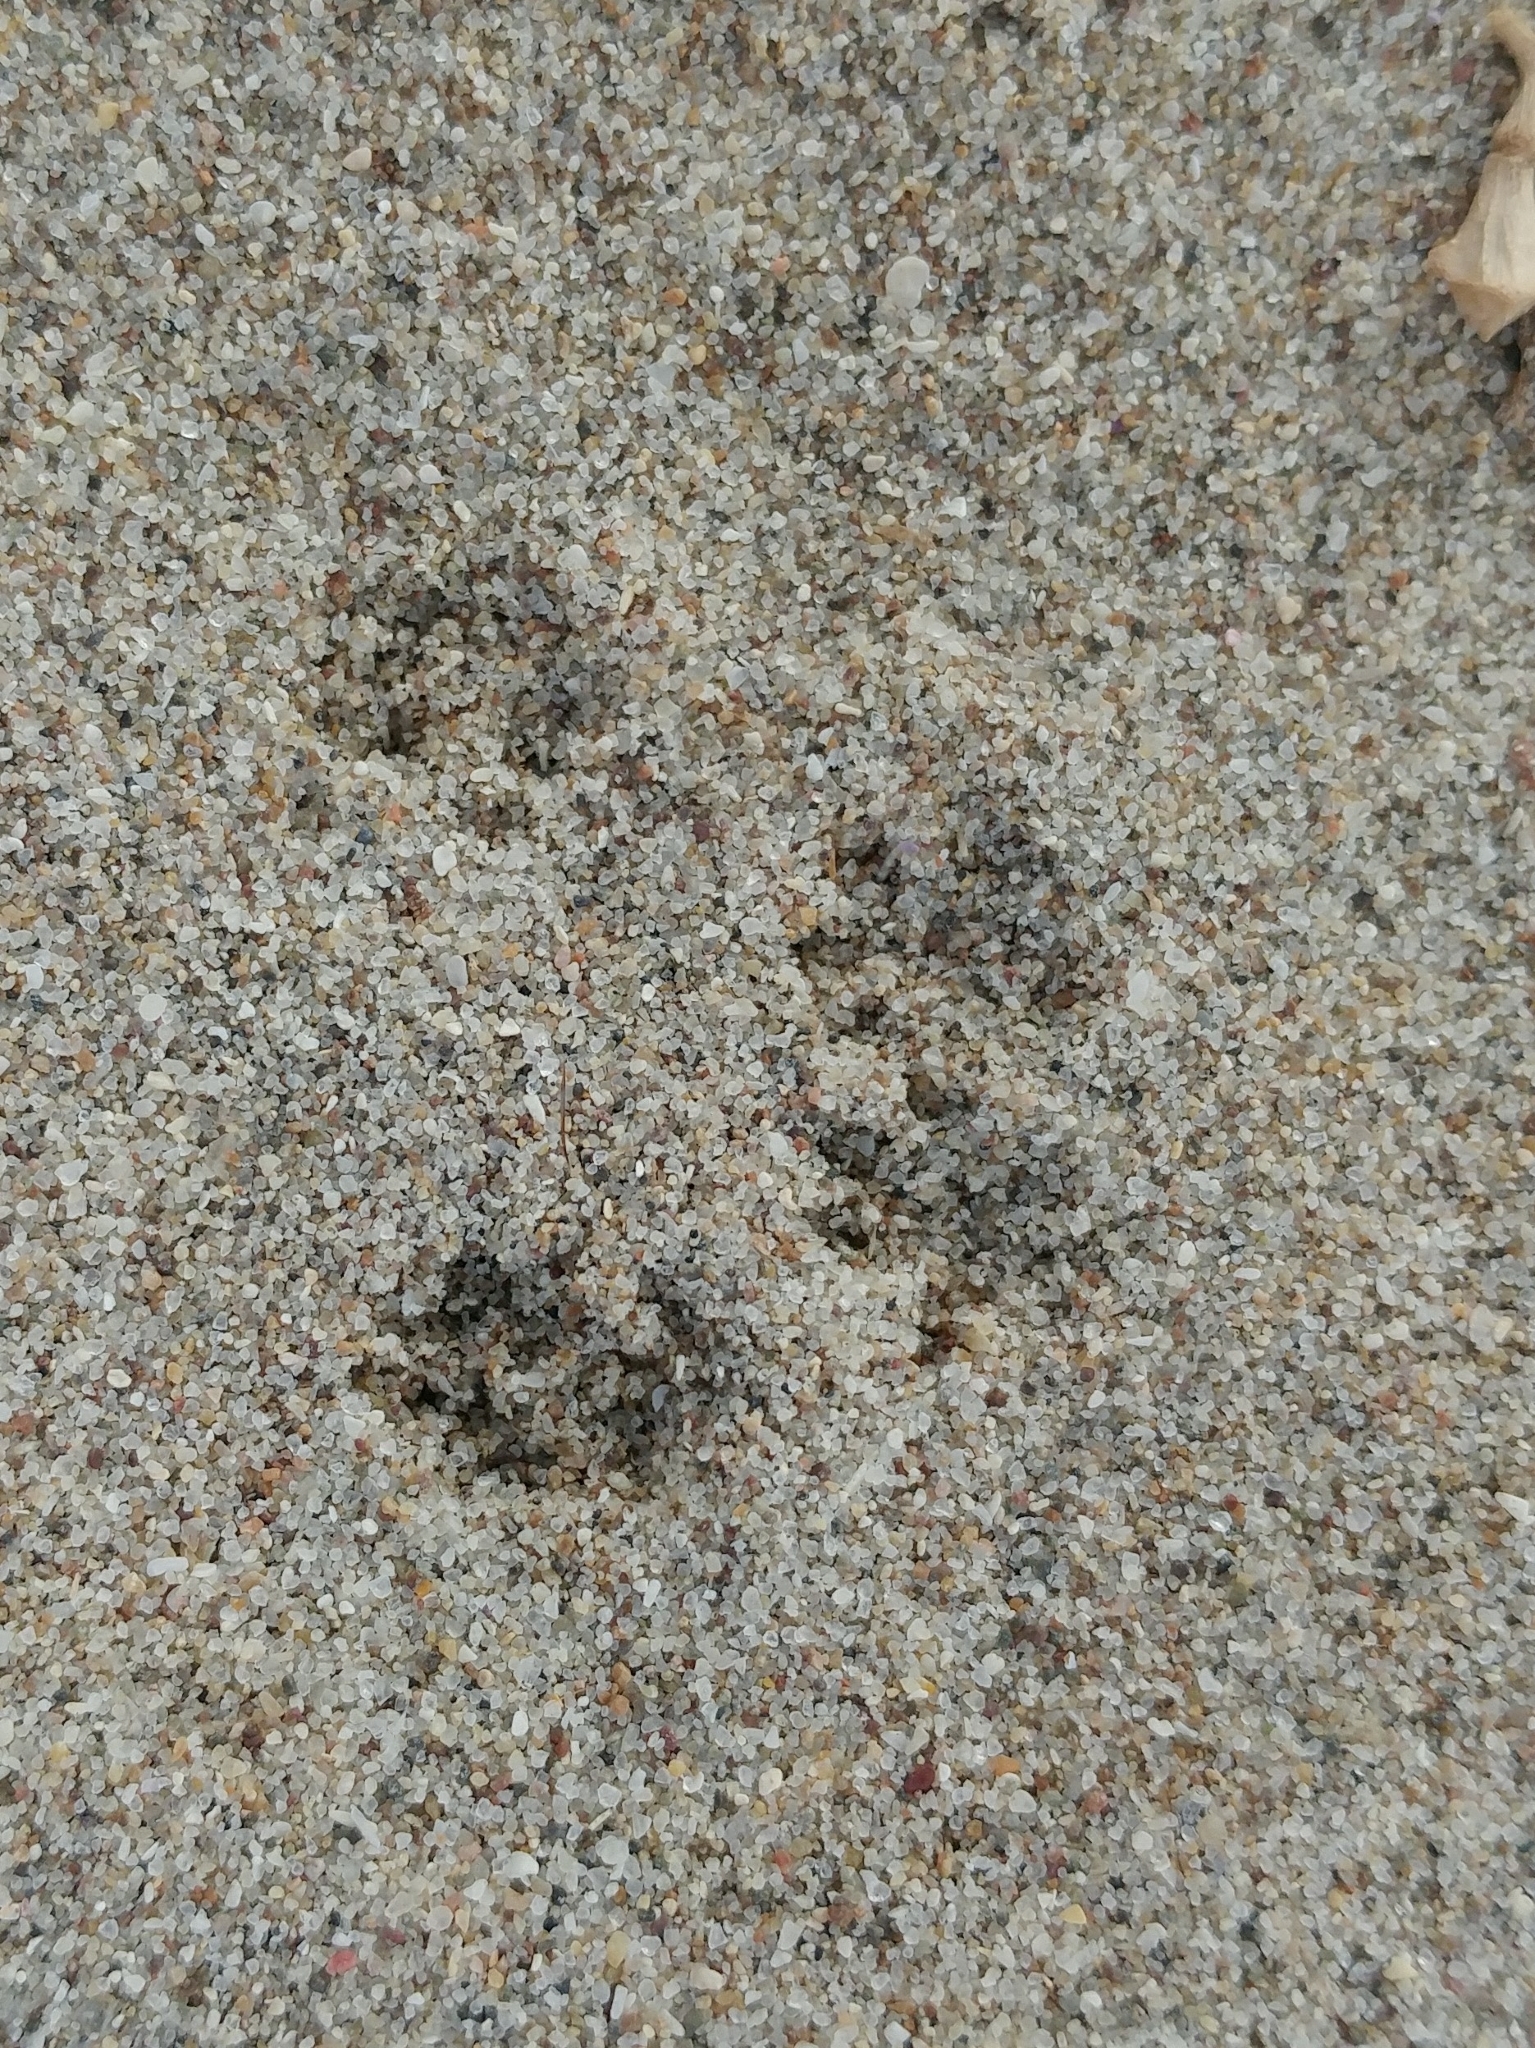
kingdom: Animalia
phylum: Chordata
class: Mammalia
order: Rodentia
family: Cricetidae
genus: Peromyscus
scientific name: Peromyscus maniculatus
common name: Deer mouse
